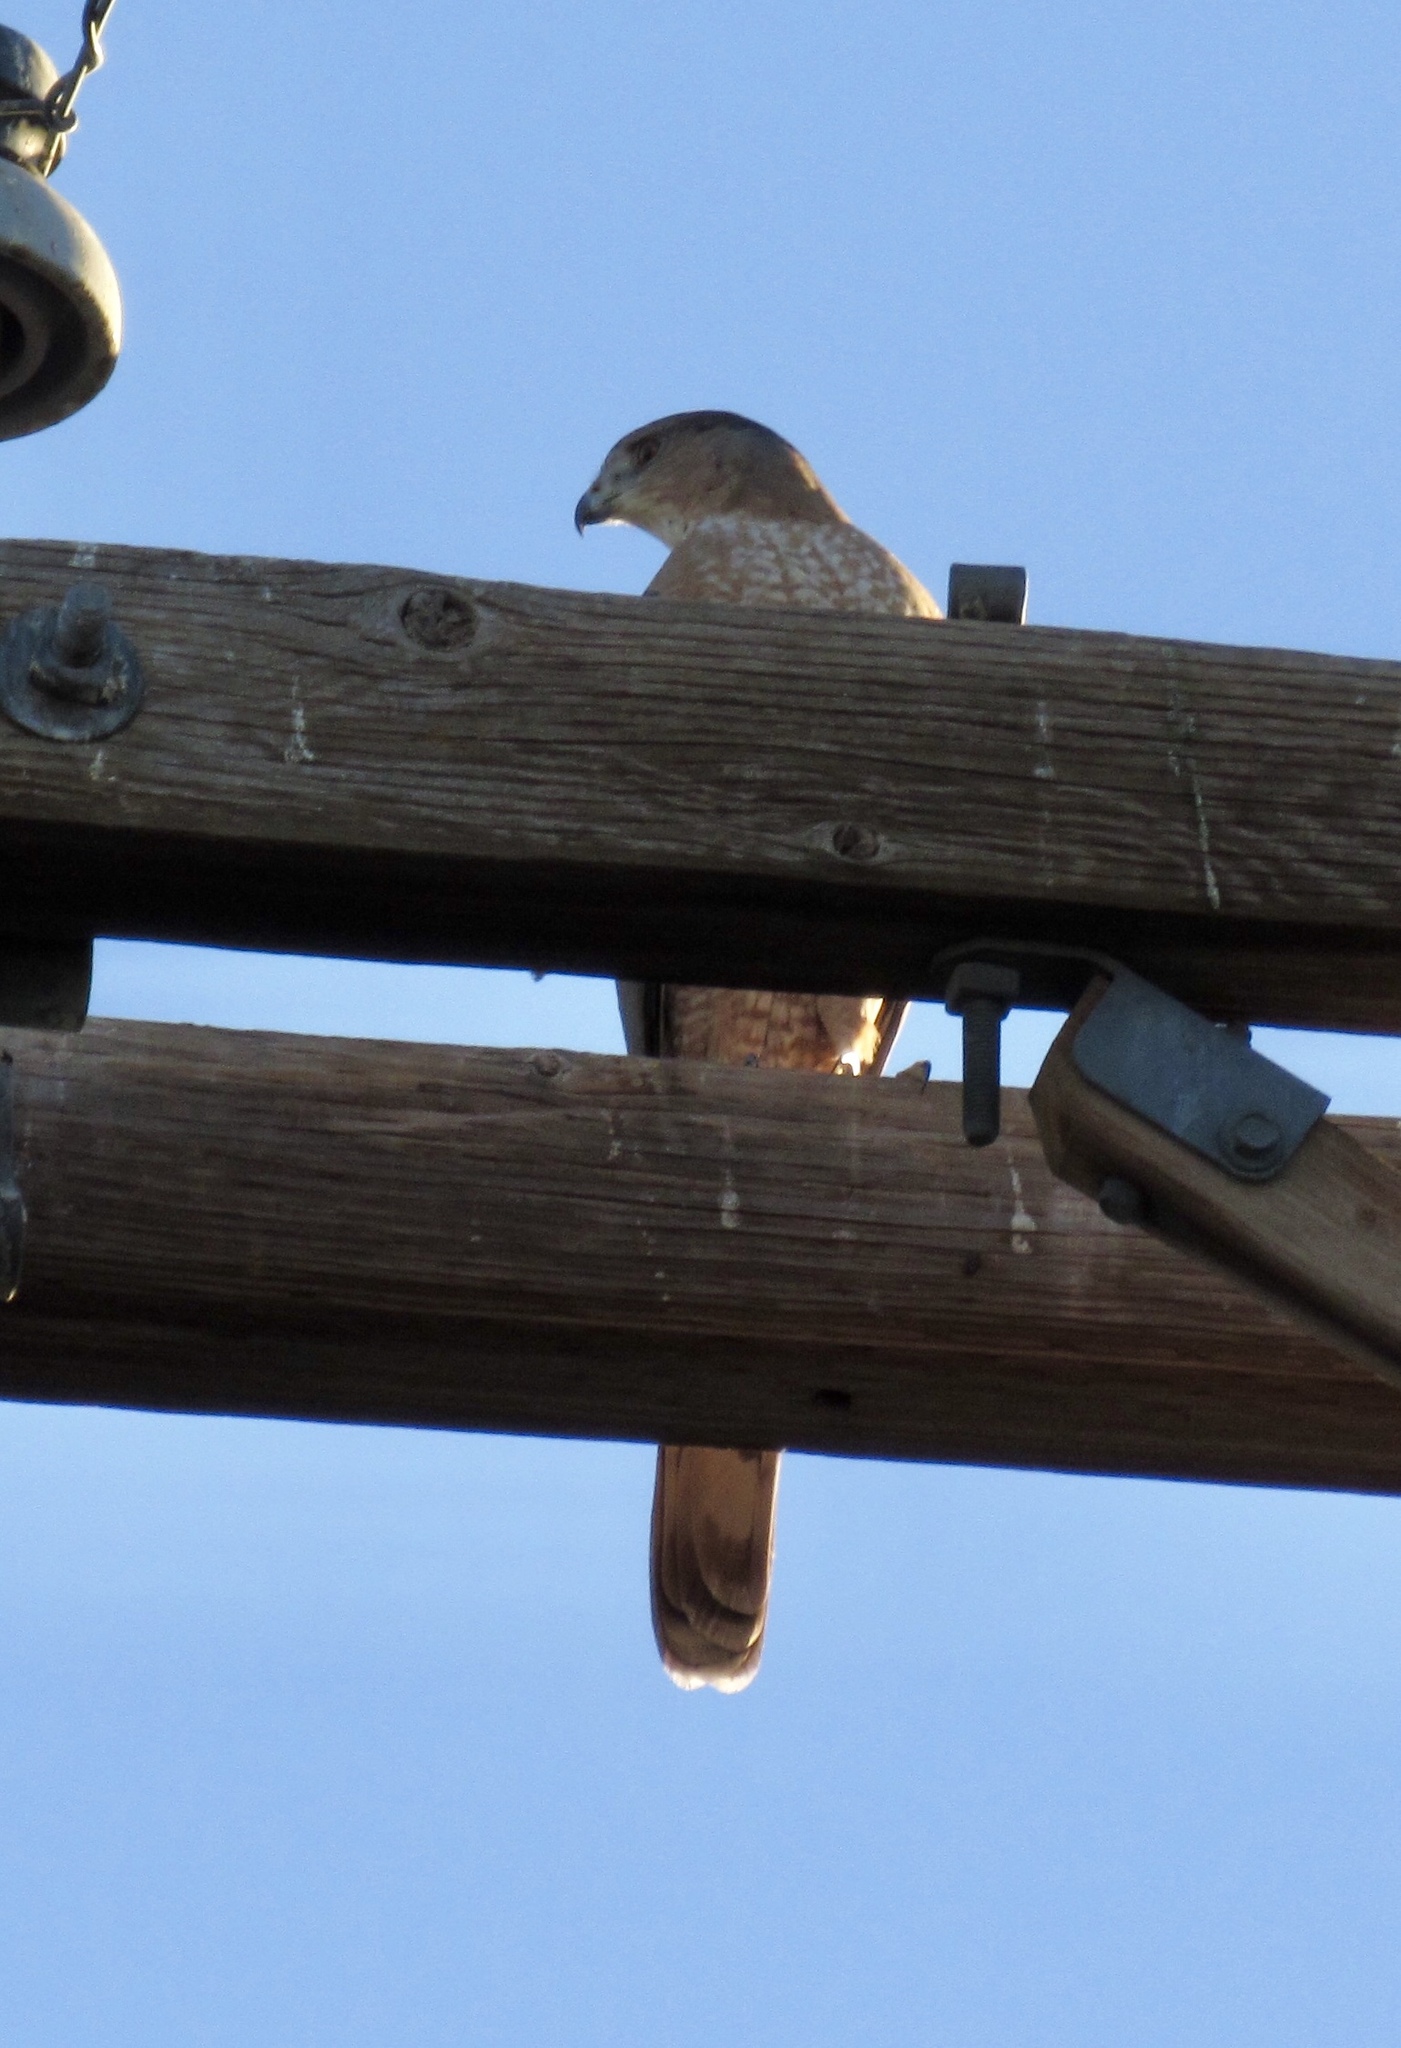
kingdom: Animalia
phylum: Chordata
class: Aves
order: Accipitriformes
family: Accipitridae
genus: Accipiter
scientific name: Accipiter cooperii
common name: Cooper's hawk
